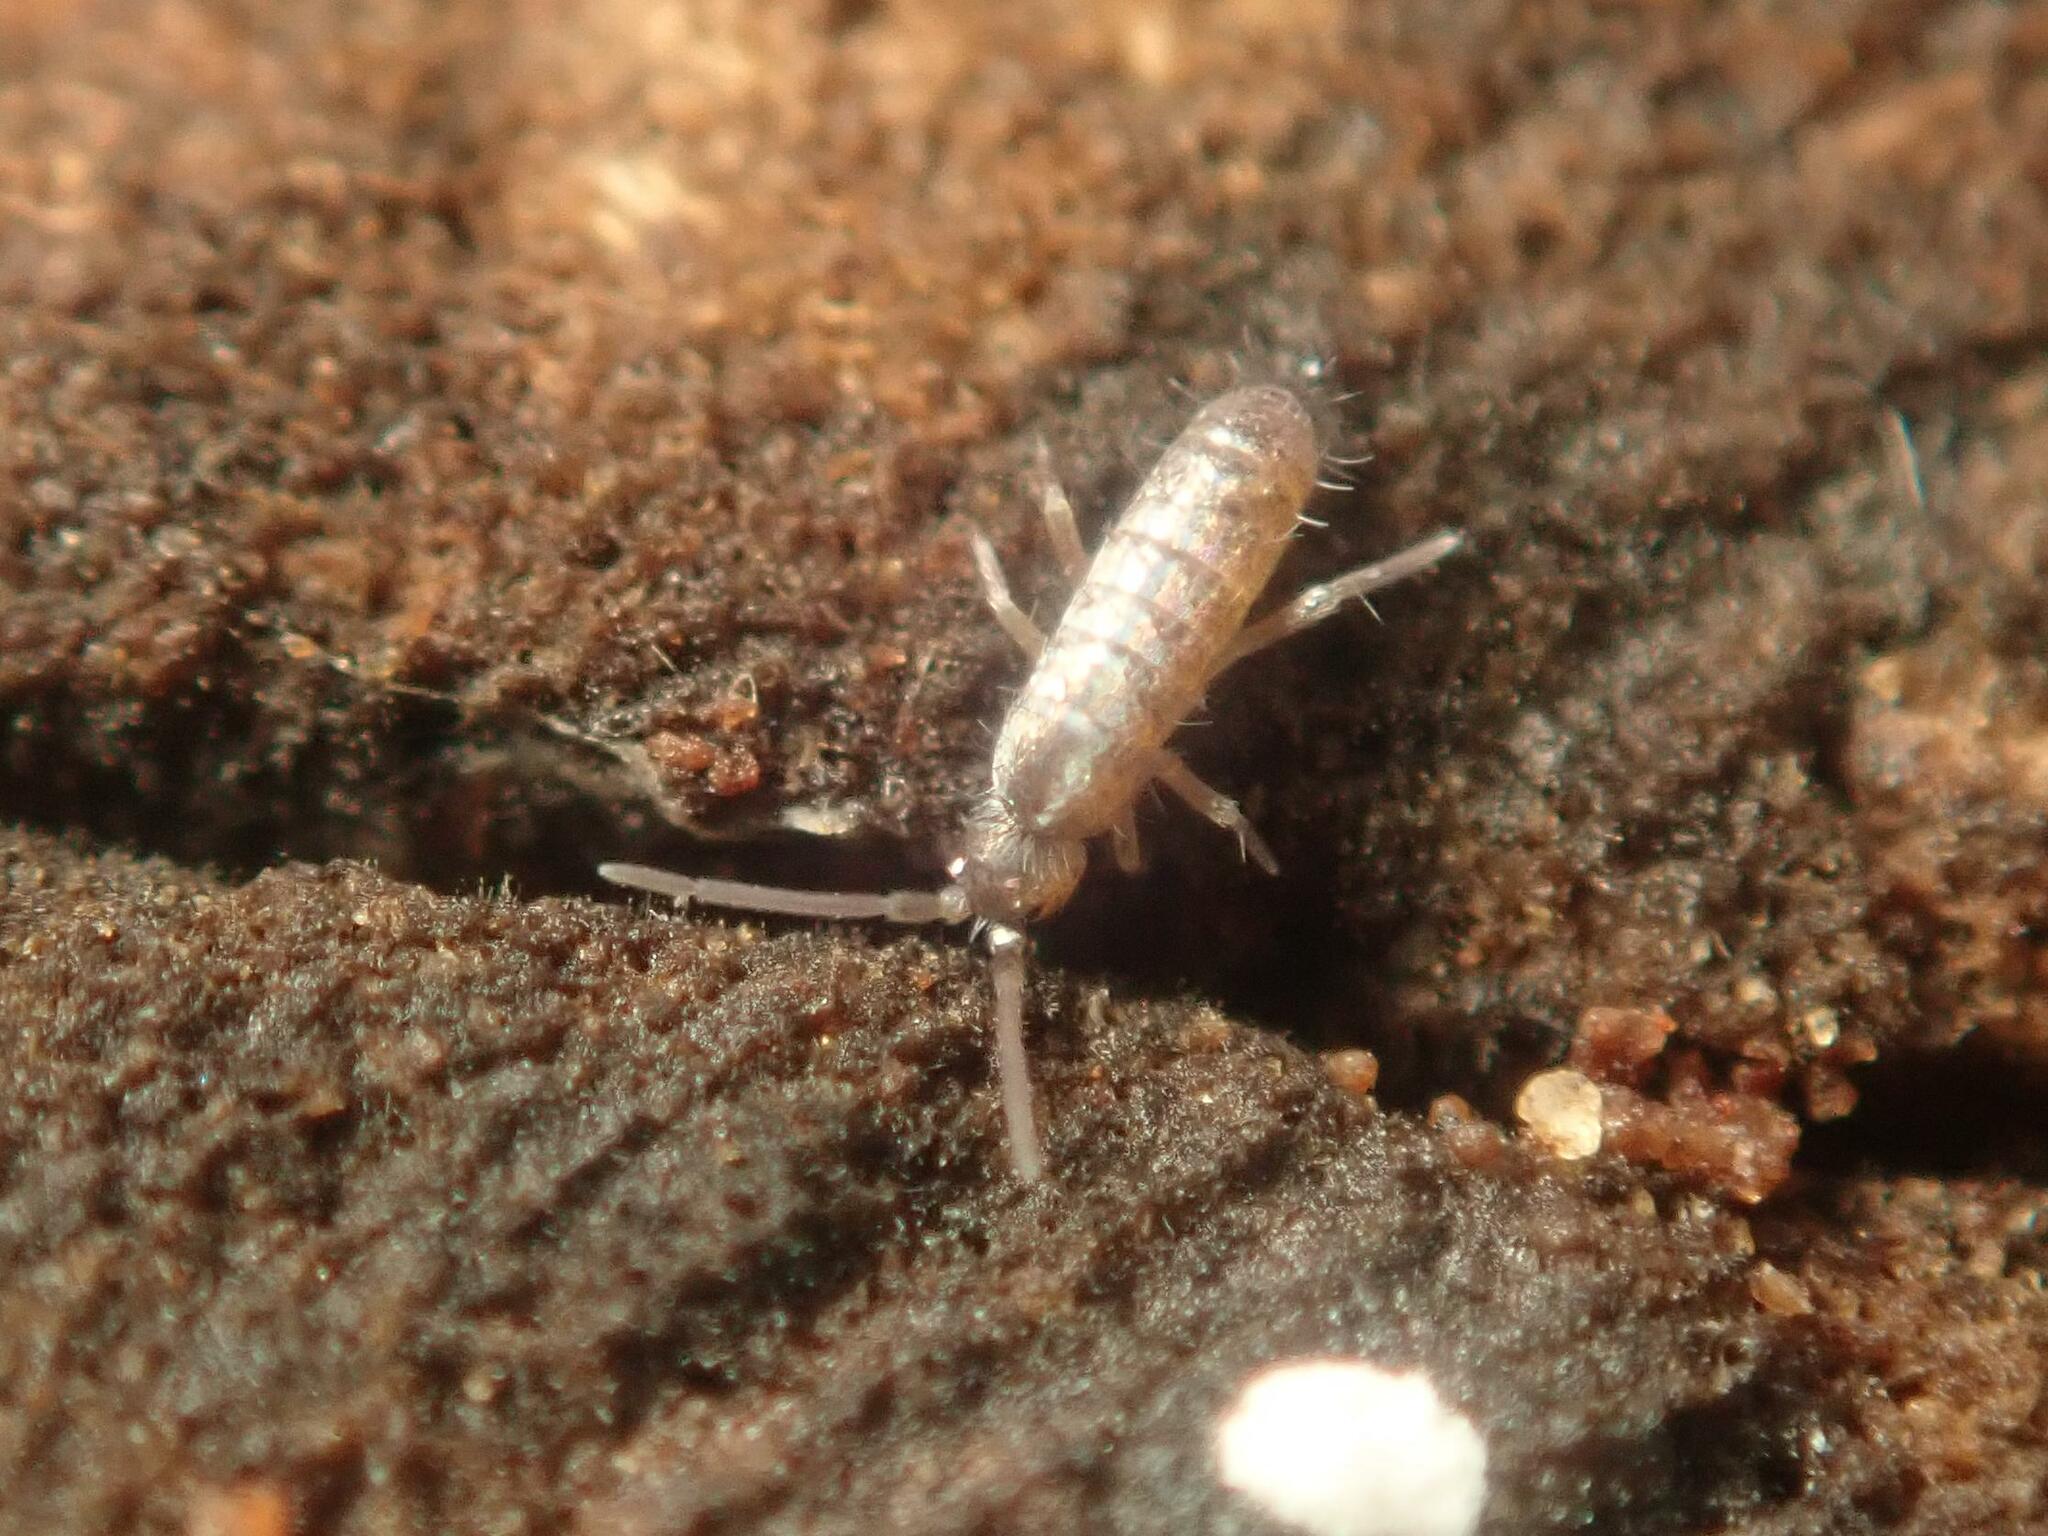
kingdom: Animalia
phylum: Arthropoda
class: Collembola
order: Entomobryomorpha
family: Tomoceridae
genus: Tomocerus
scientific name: Tomocerus vulgaris
